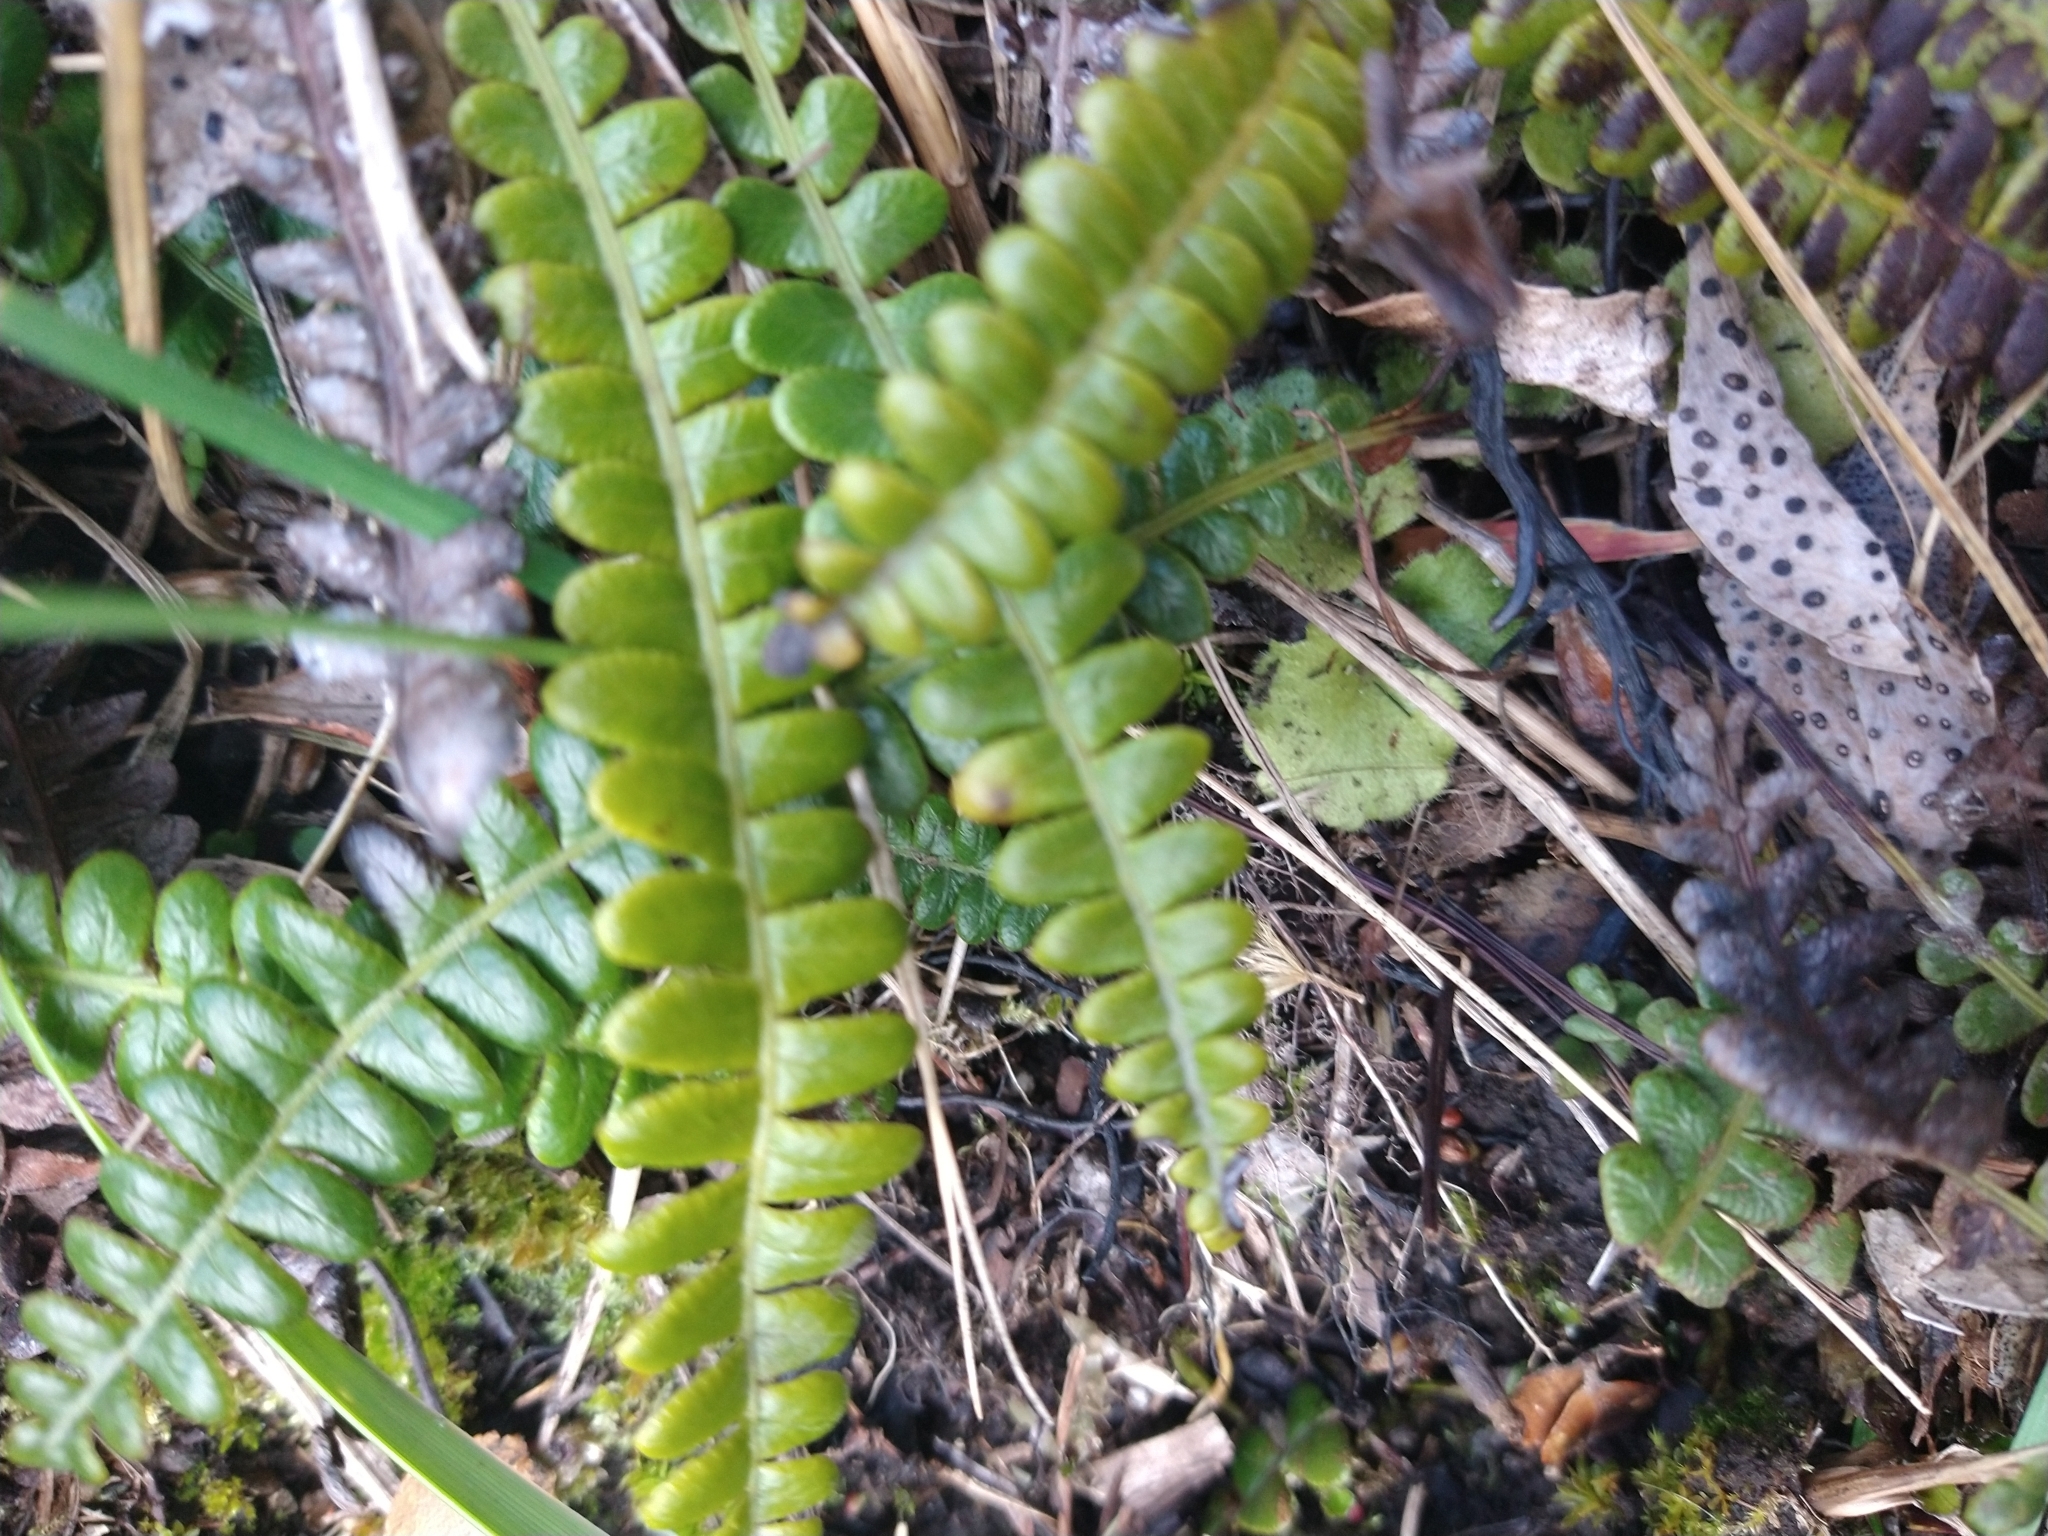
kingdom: Plantae
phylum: Tracheophyta
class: Polypodiopsida
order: Polypodiales
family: Blechnaceae
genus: Austroblechnum
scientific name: Austroblechnum penna-marina
